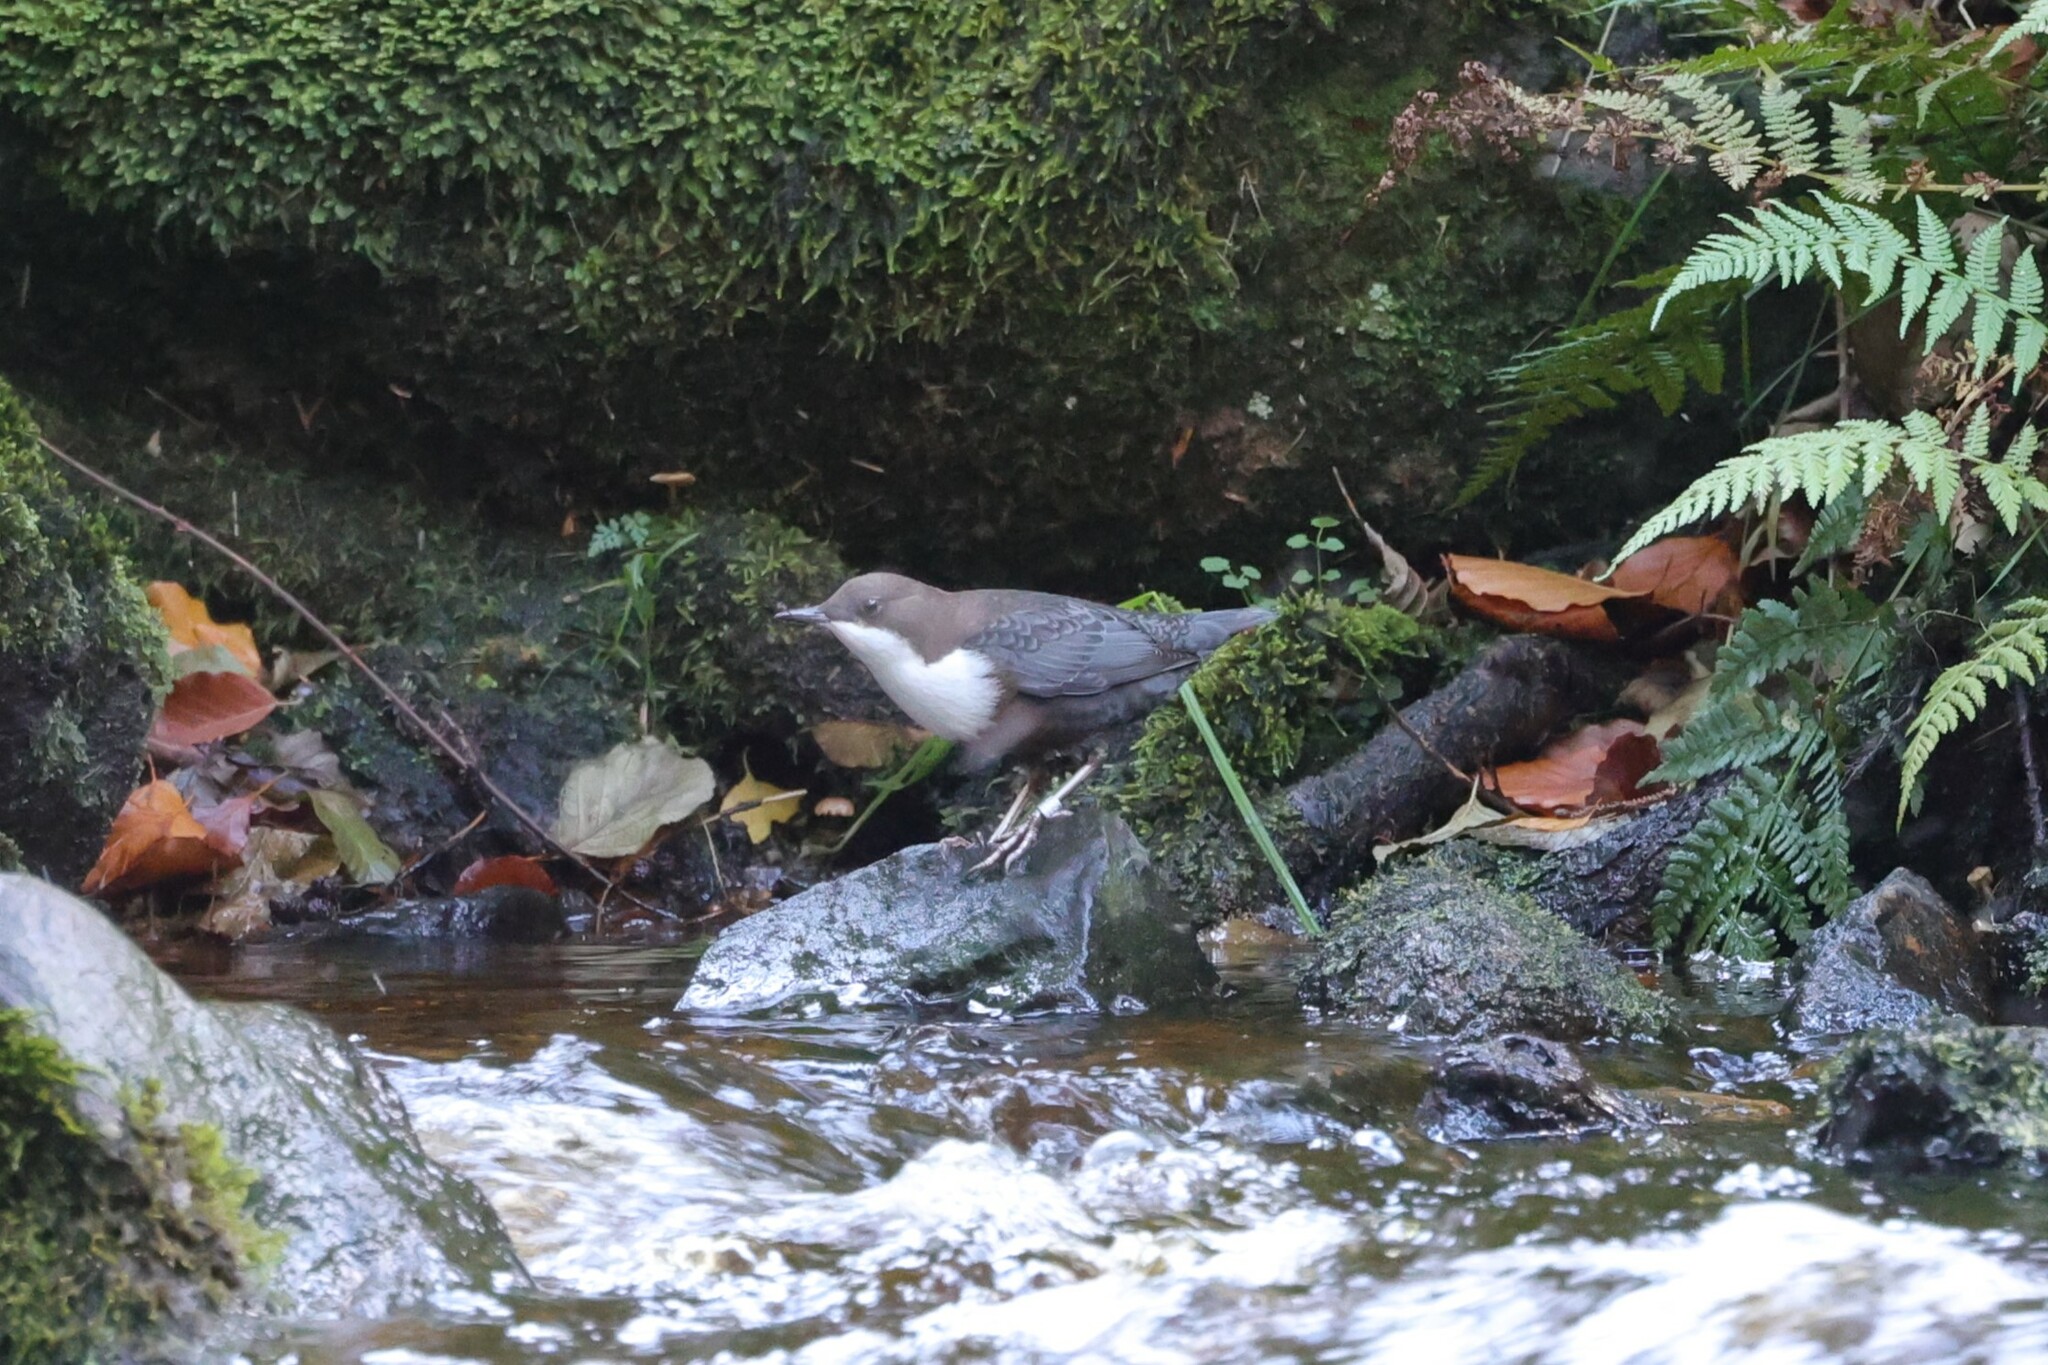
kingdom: Animalia
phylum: Chordata
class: Aves
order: Passeriformes
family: Cinclidae
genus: Cinclus
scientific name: Cinclus cinclus
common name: White-throated dipper
